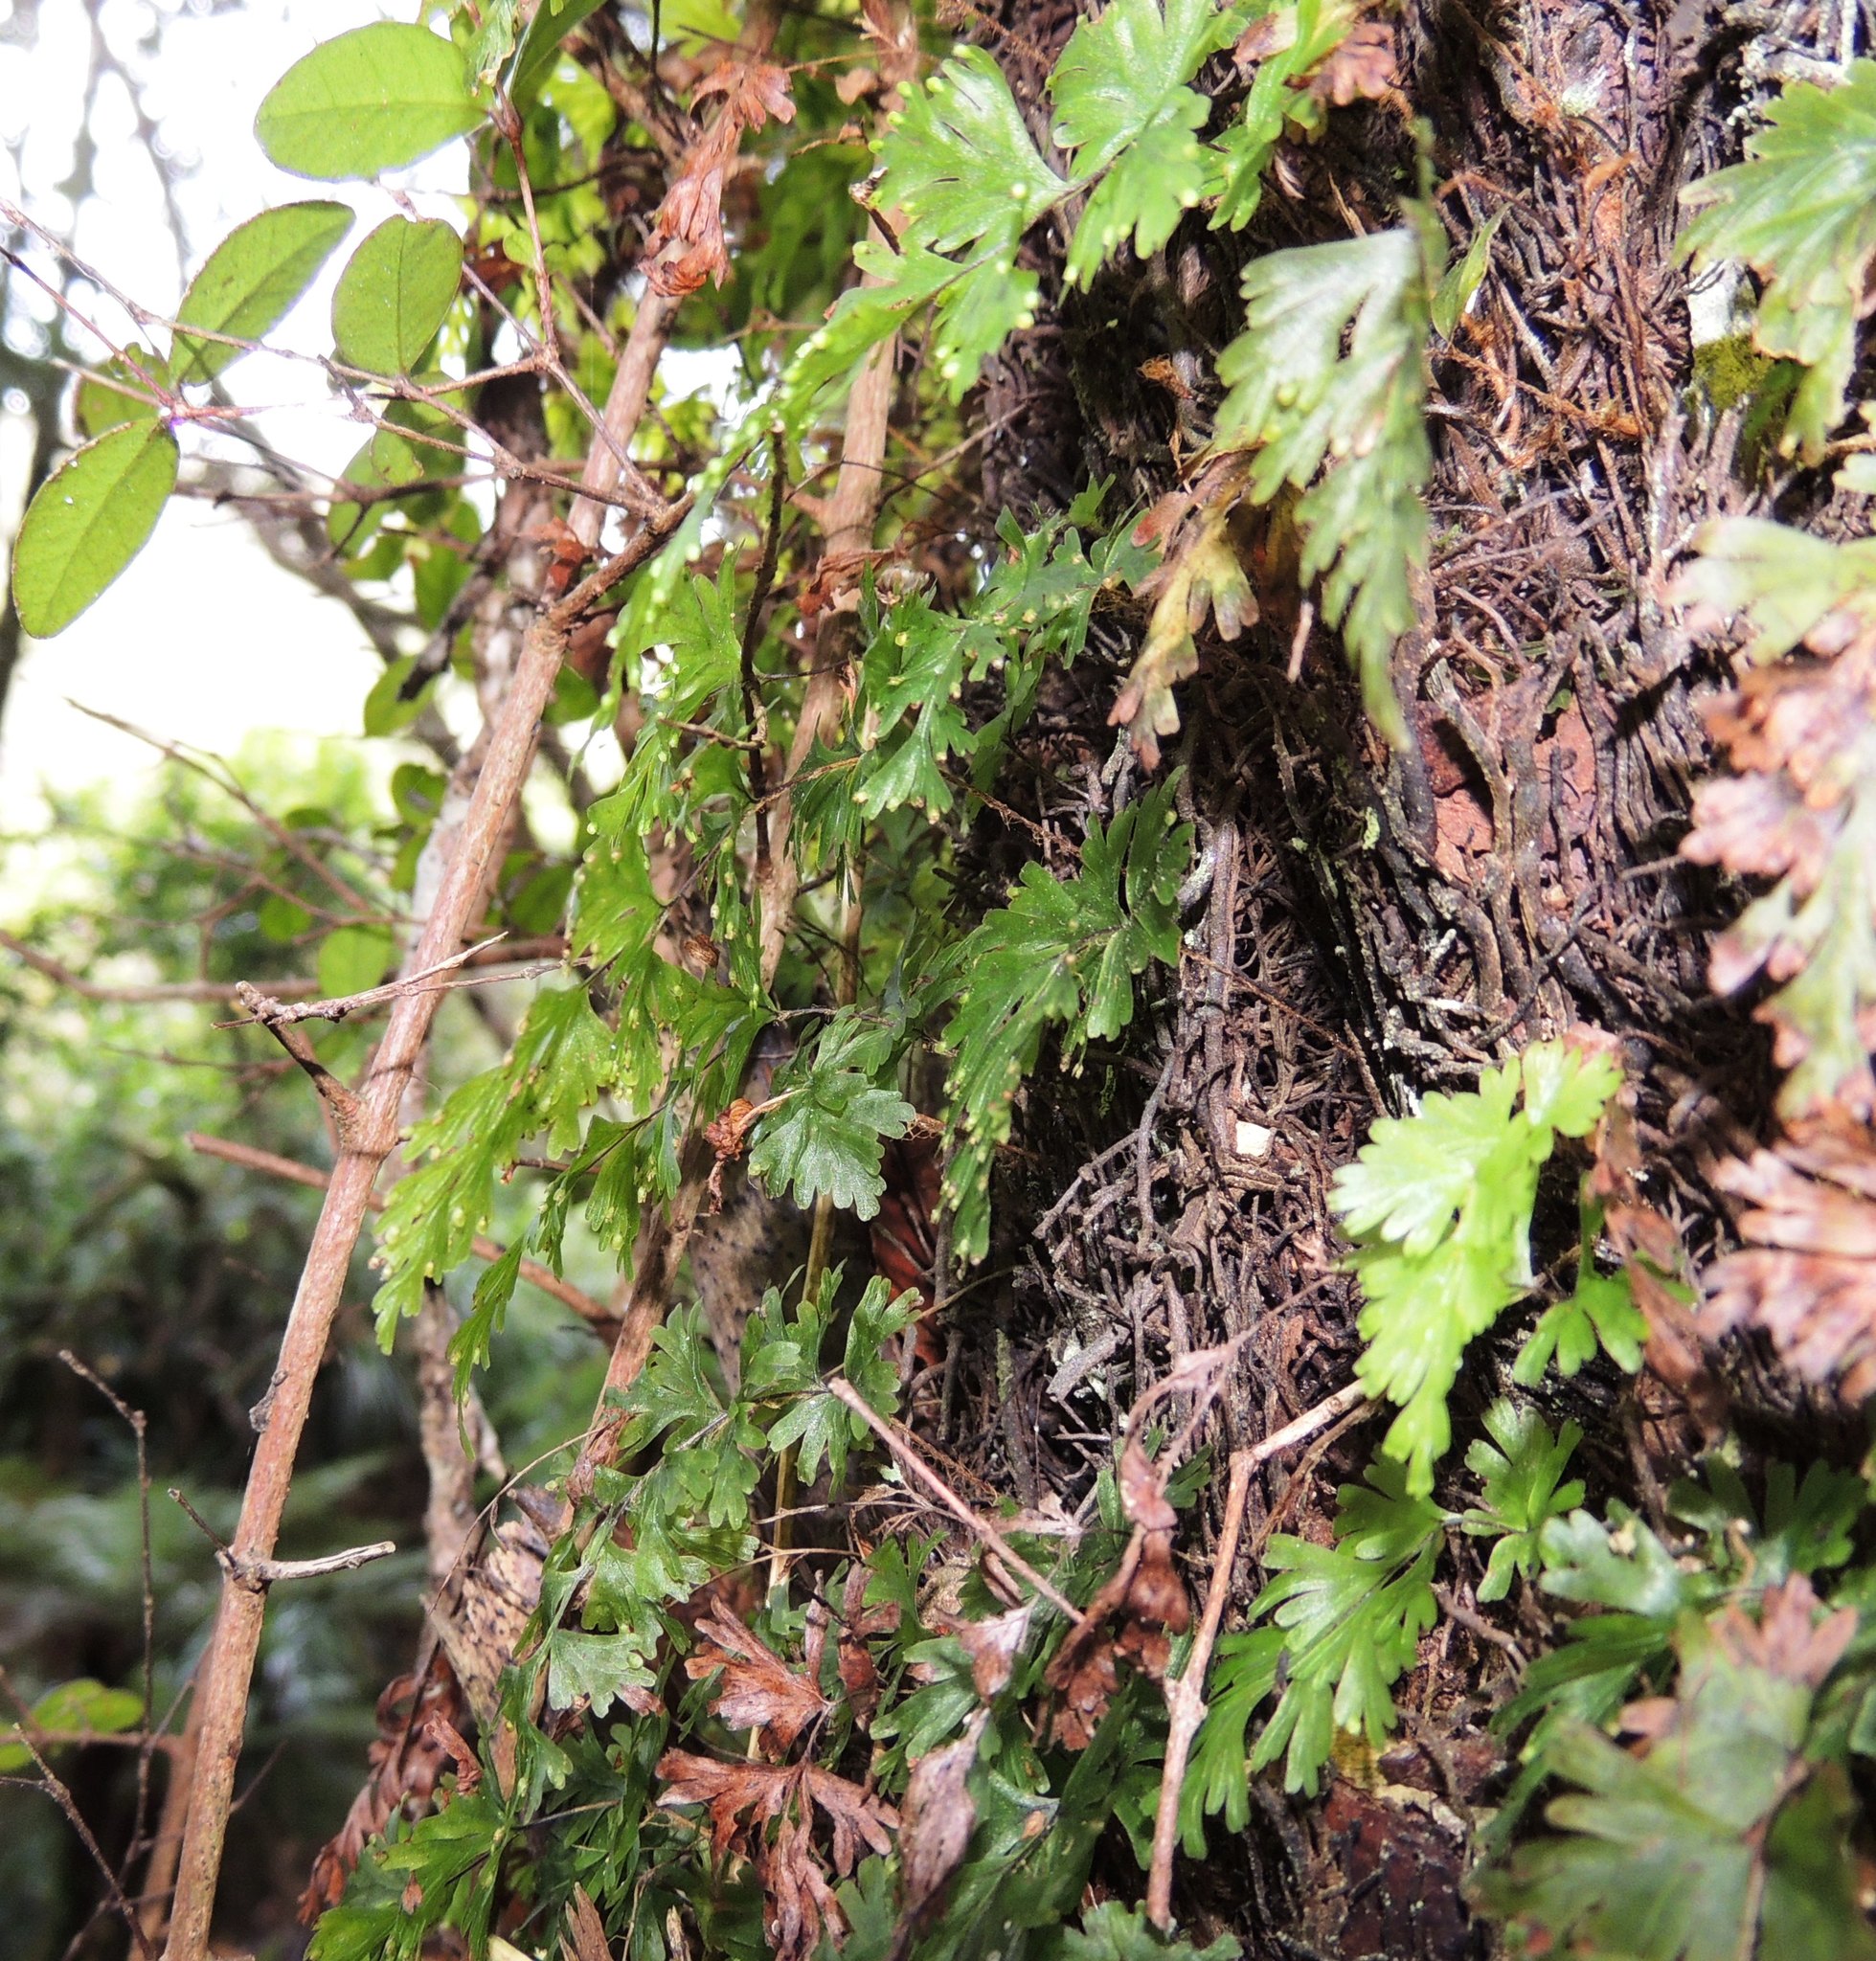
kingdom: Plantae
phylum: Tracheophyta
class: Polypodiopsida
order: Hymenophyllales
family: Hymenophyllaceae
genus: Hymenophyllum
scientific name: Hymenophyllum flabellatum
